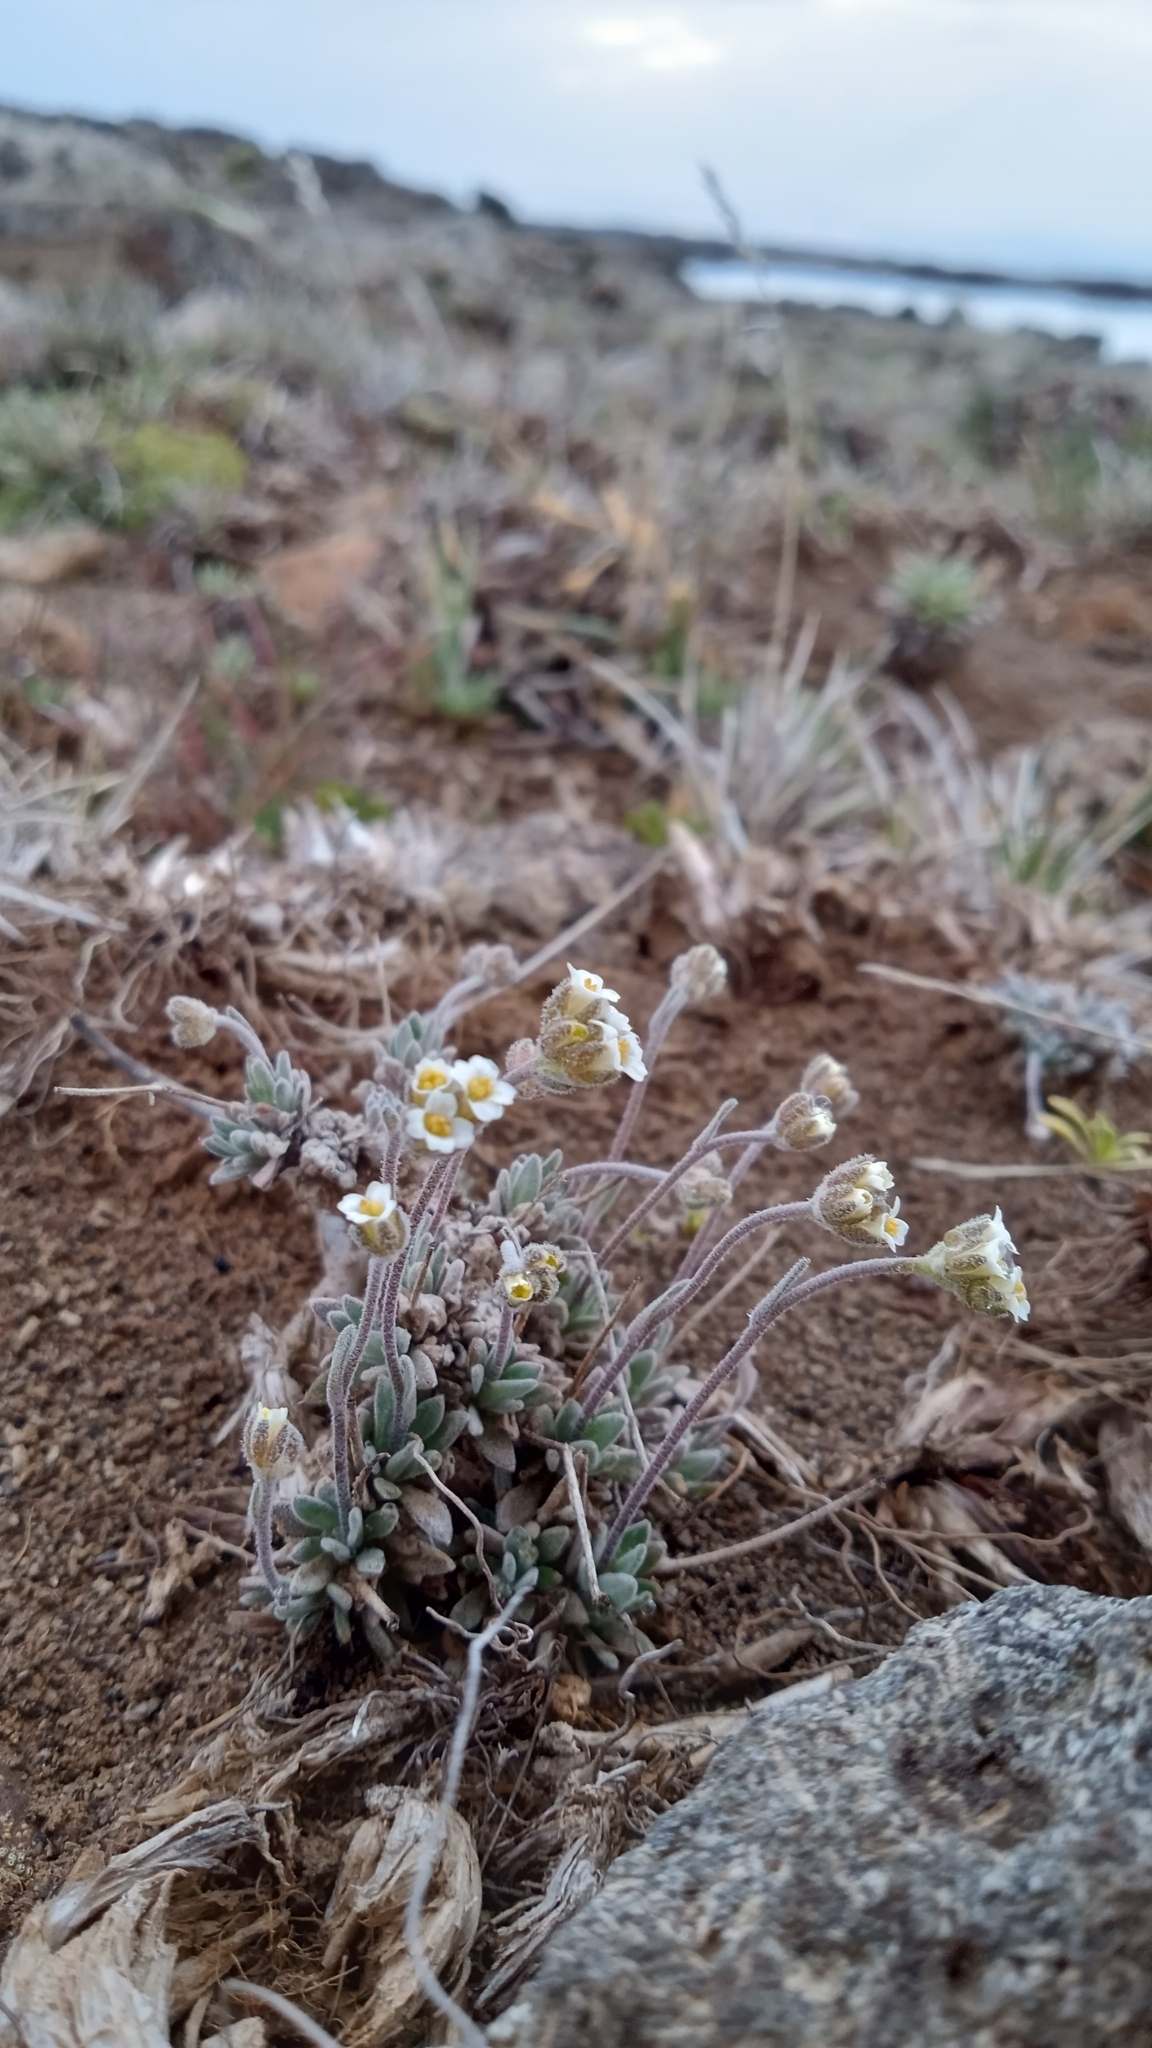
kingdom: Plantae
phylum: Tracheophyta
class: Magnoliopsida
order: Brassicales
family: Brassicaceae
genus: Draba
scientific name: Draba magellanica
